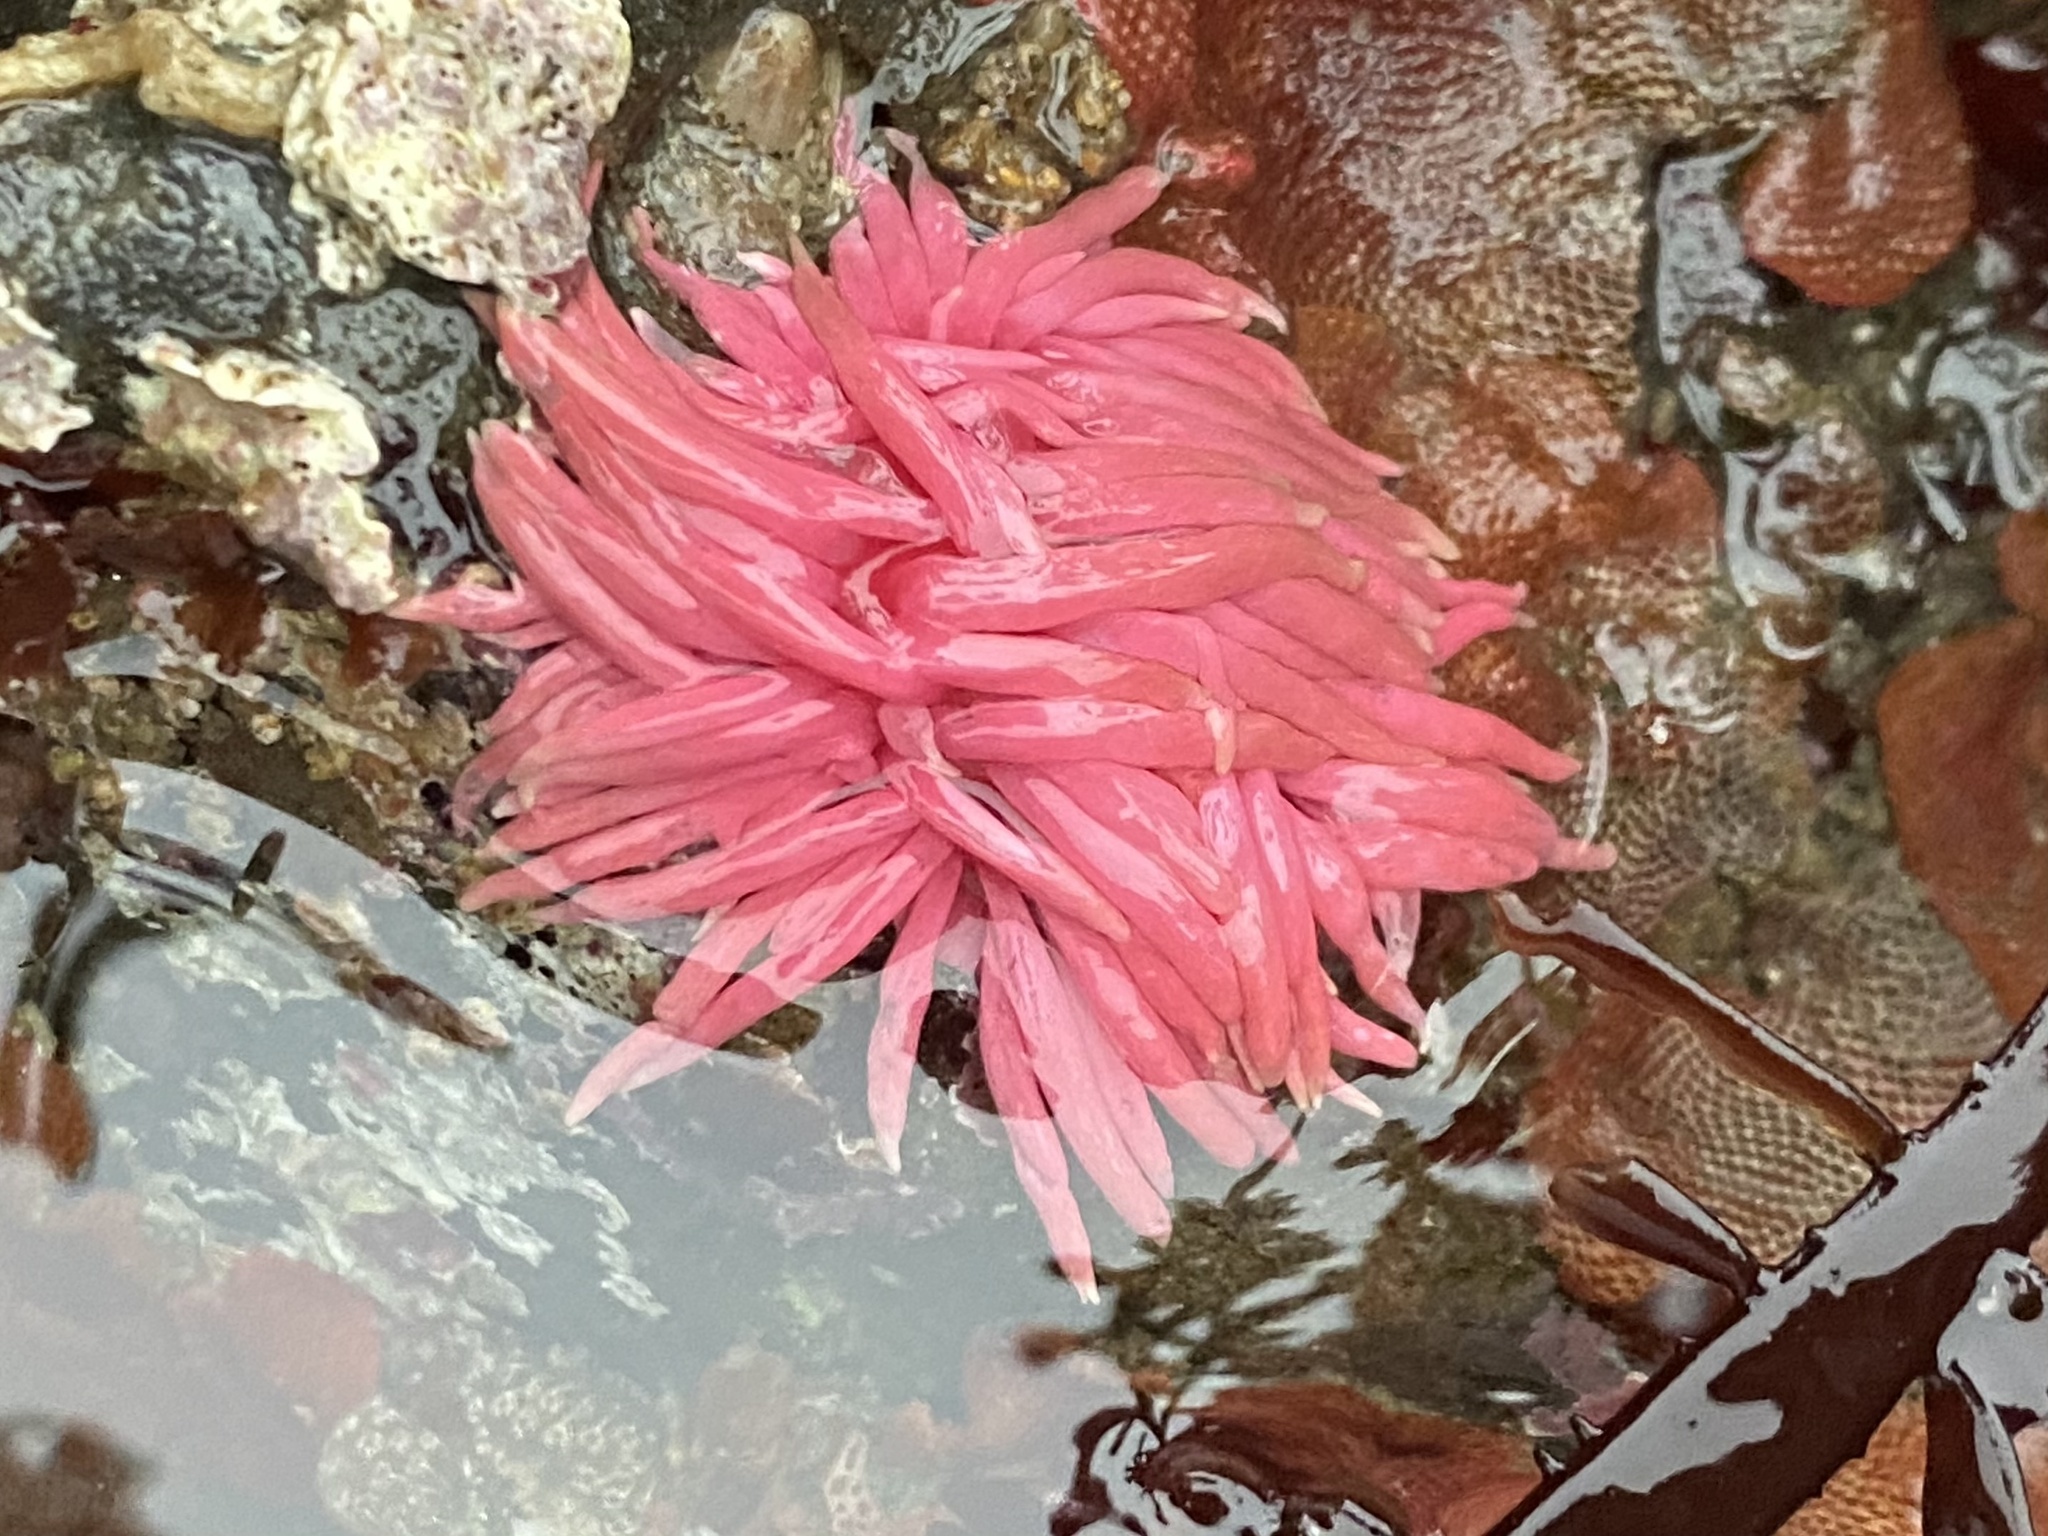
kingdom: Animalia
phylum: Mollusca
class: Gastropoda
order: Nudibranchia
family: Goniodorididae
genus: Okenia
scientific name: Okenia
